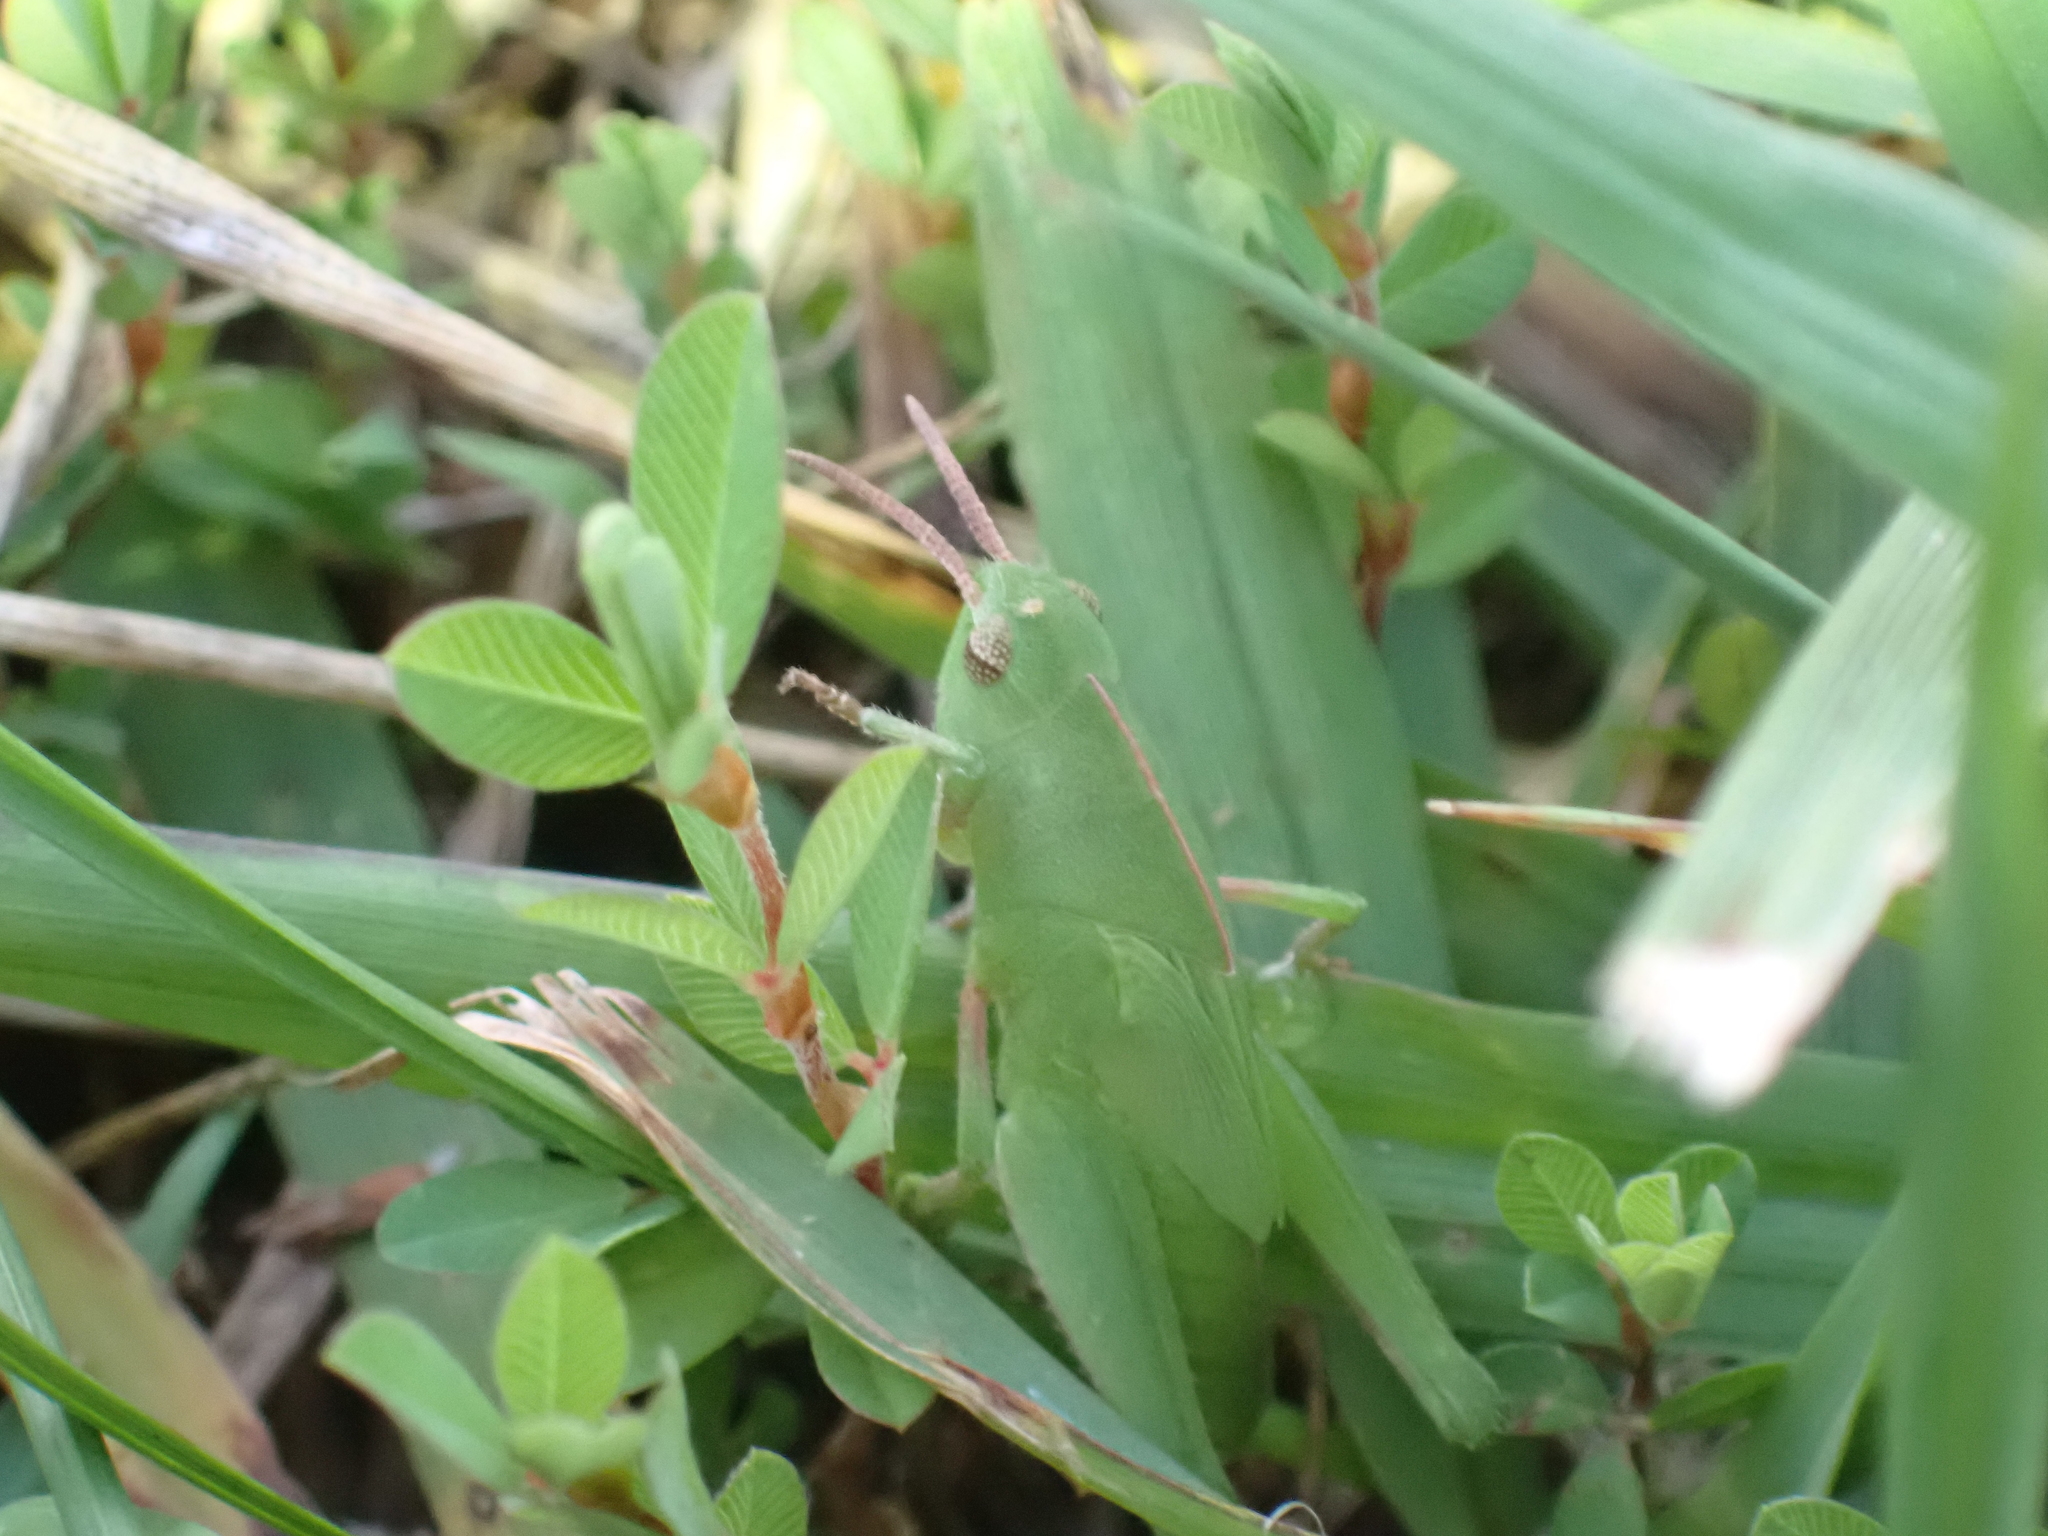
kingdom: Animalia
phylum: Arthropoda
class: Insecta
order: Orthoptera
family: Acrididae
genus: Chortophaga
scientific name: Chortophaga viridifasciata
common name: Green-striped grasshopper
